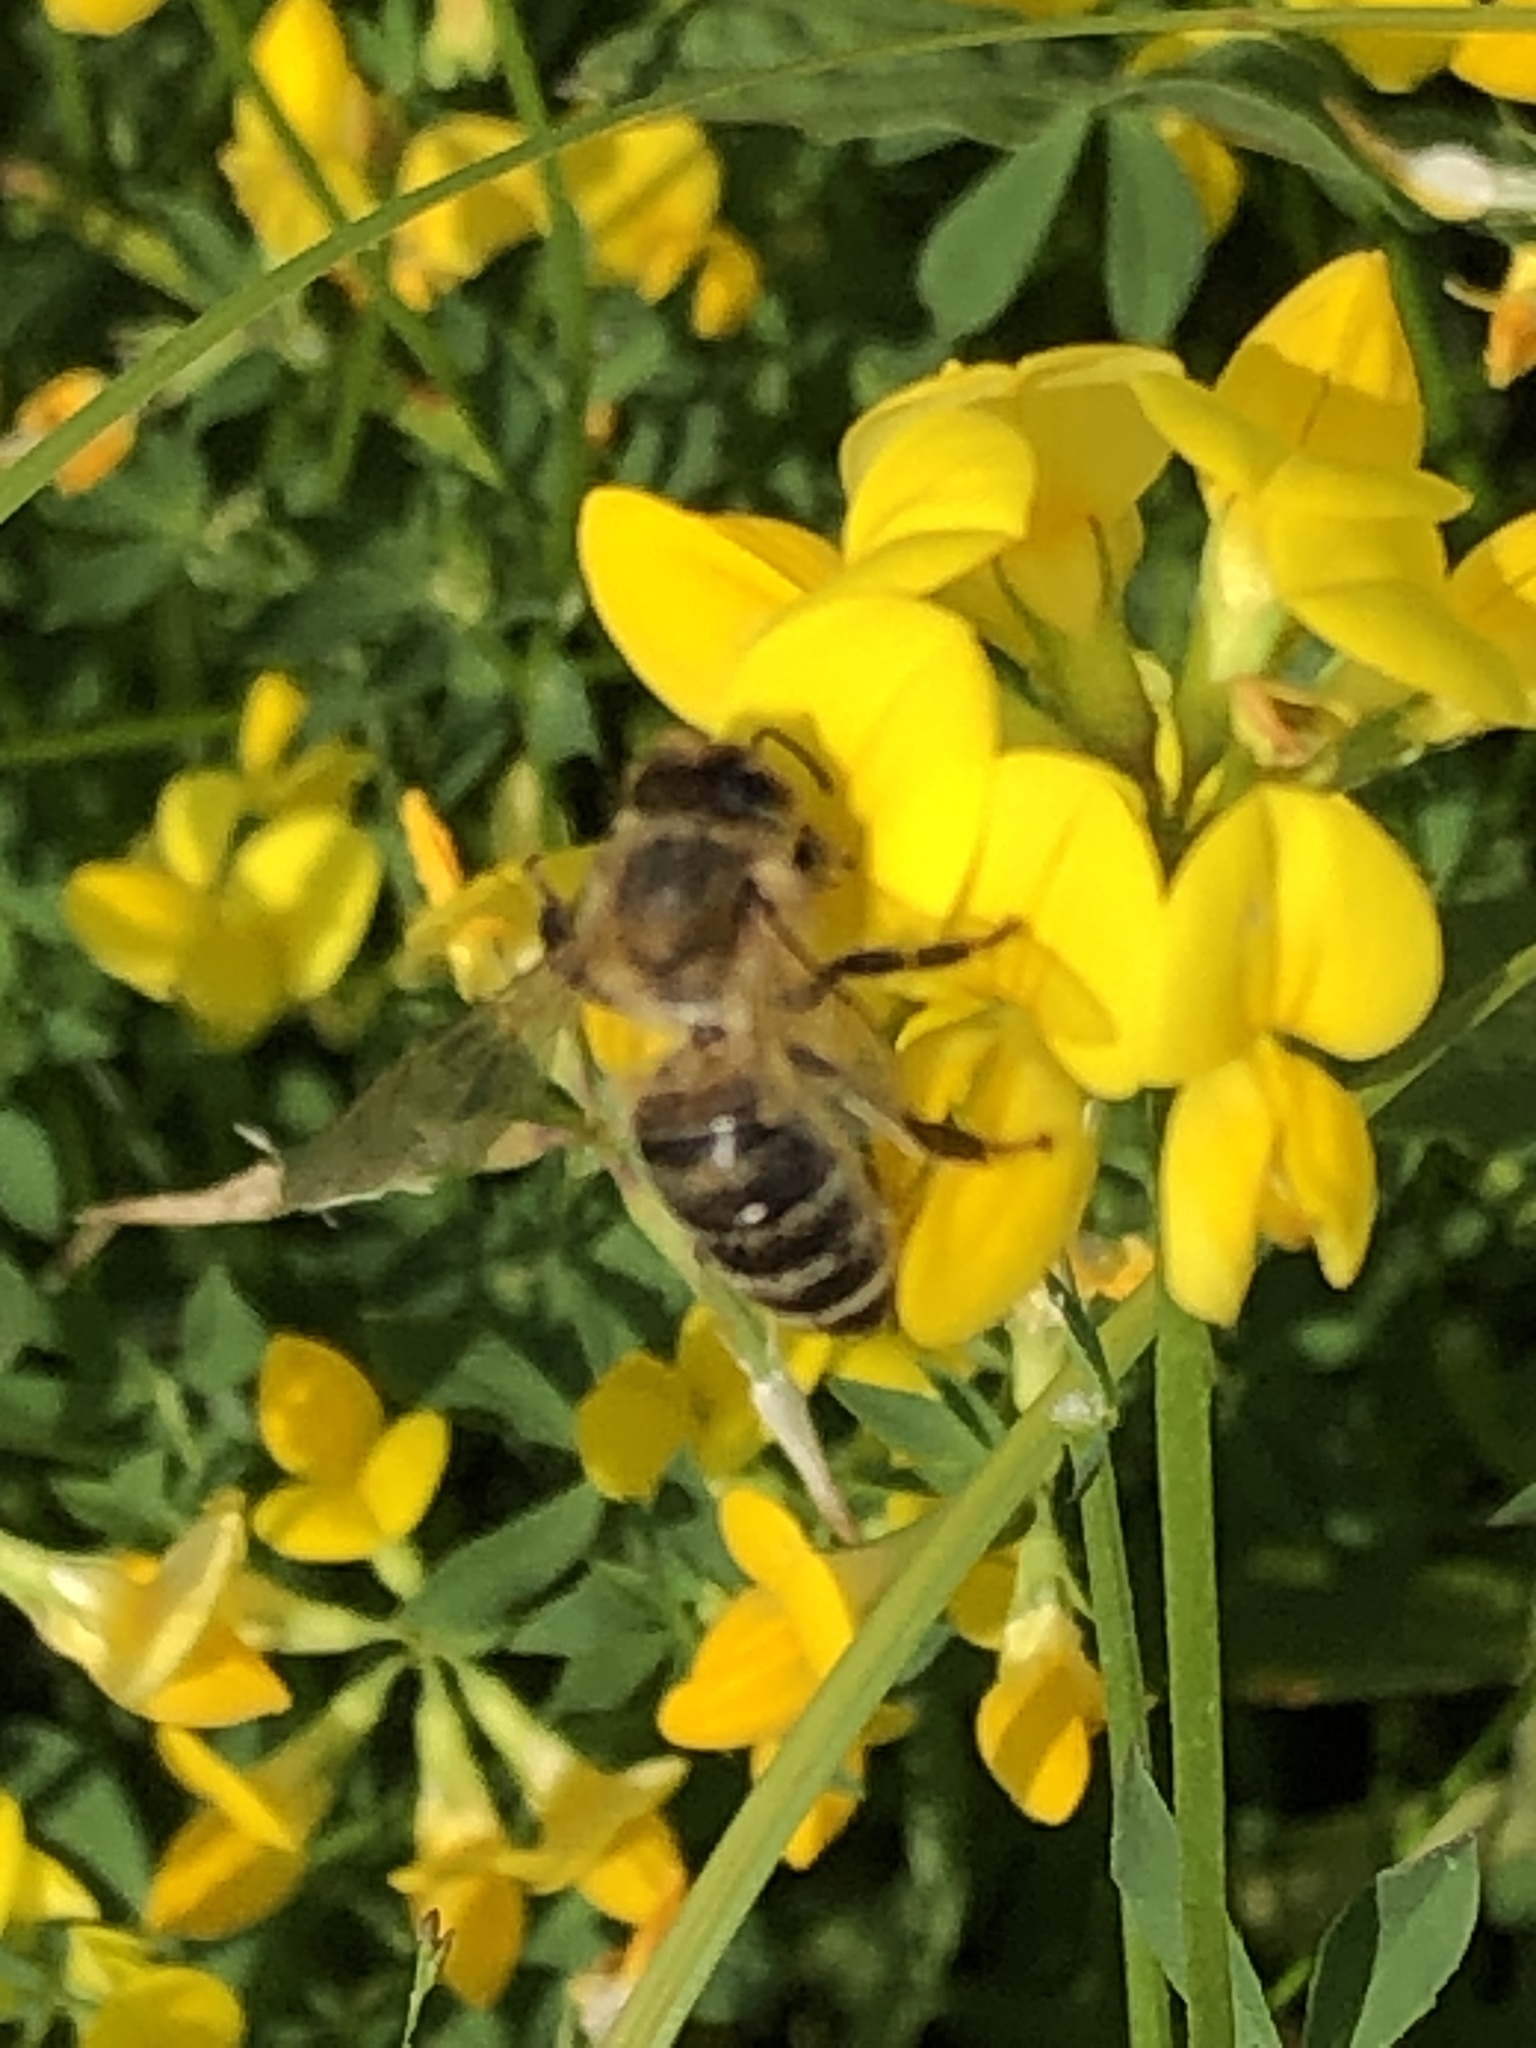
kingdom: Animalia
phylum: Arthropoda
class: Insecta
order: Hymenoptera
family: Apidae
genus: Apis
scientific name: Apis mellifera
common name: Honey bee
